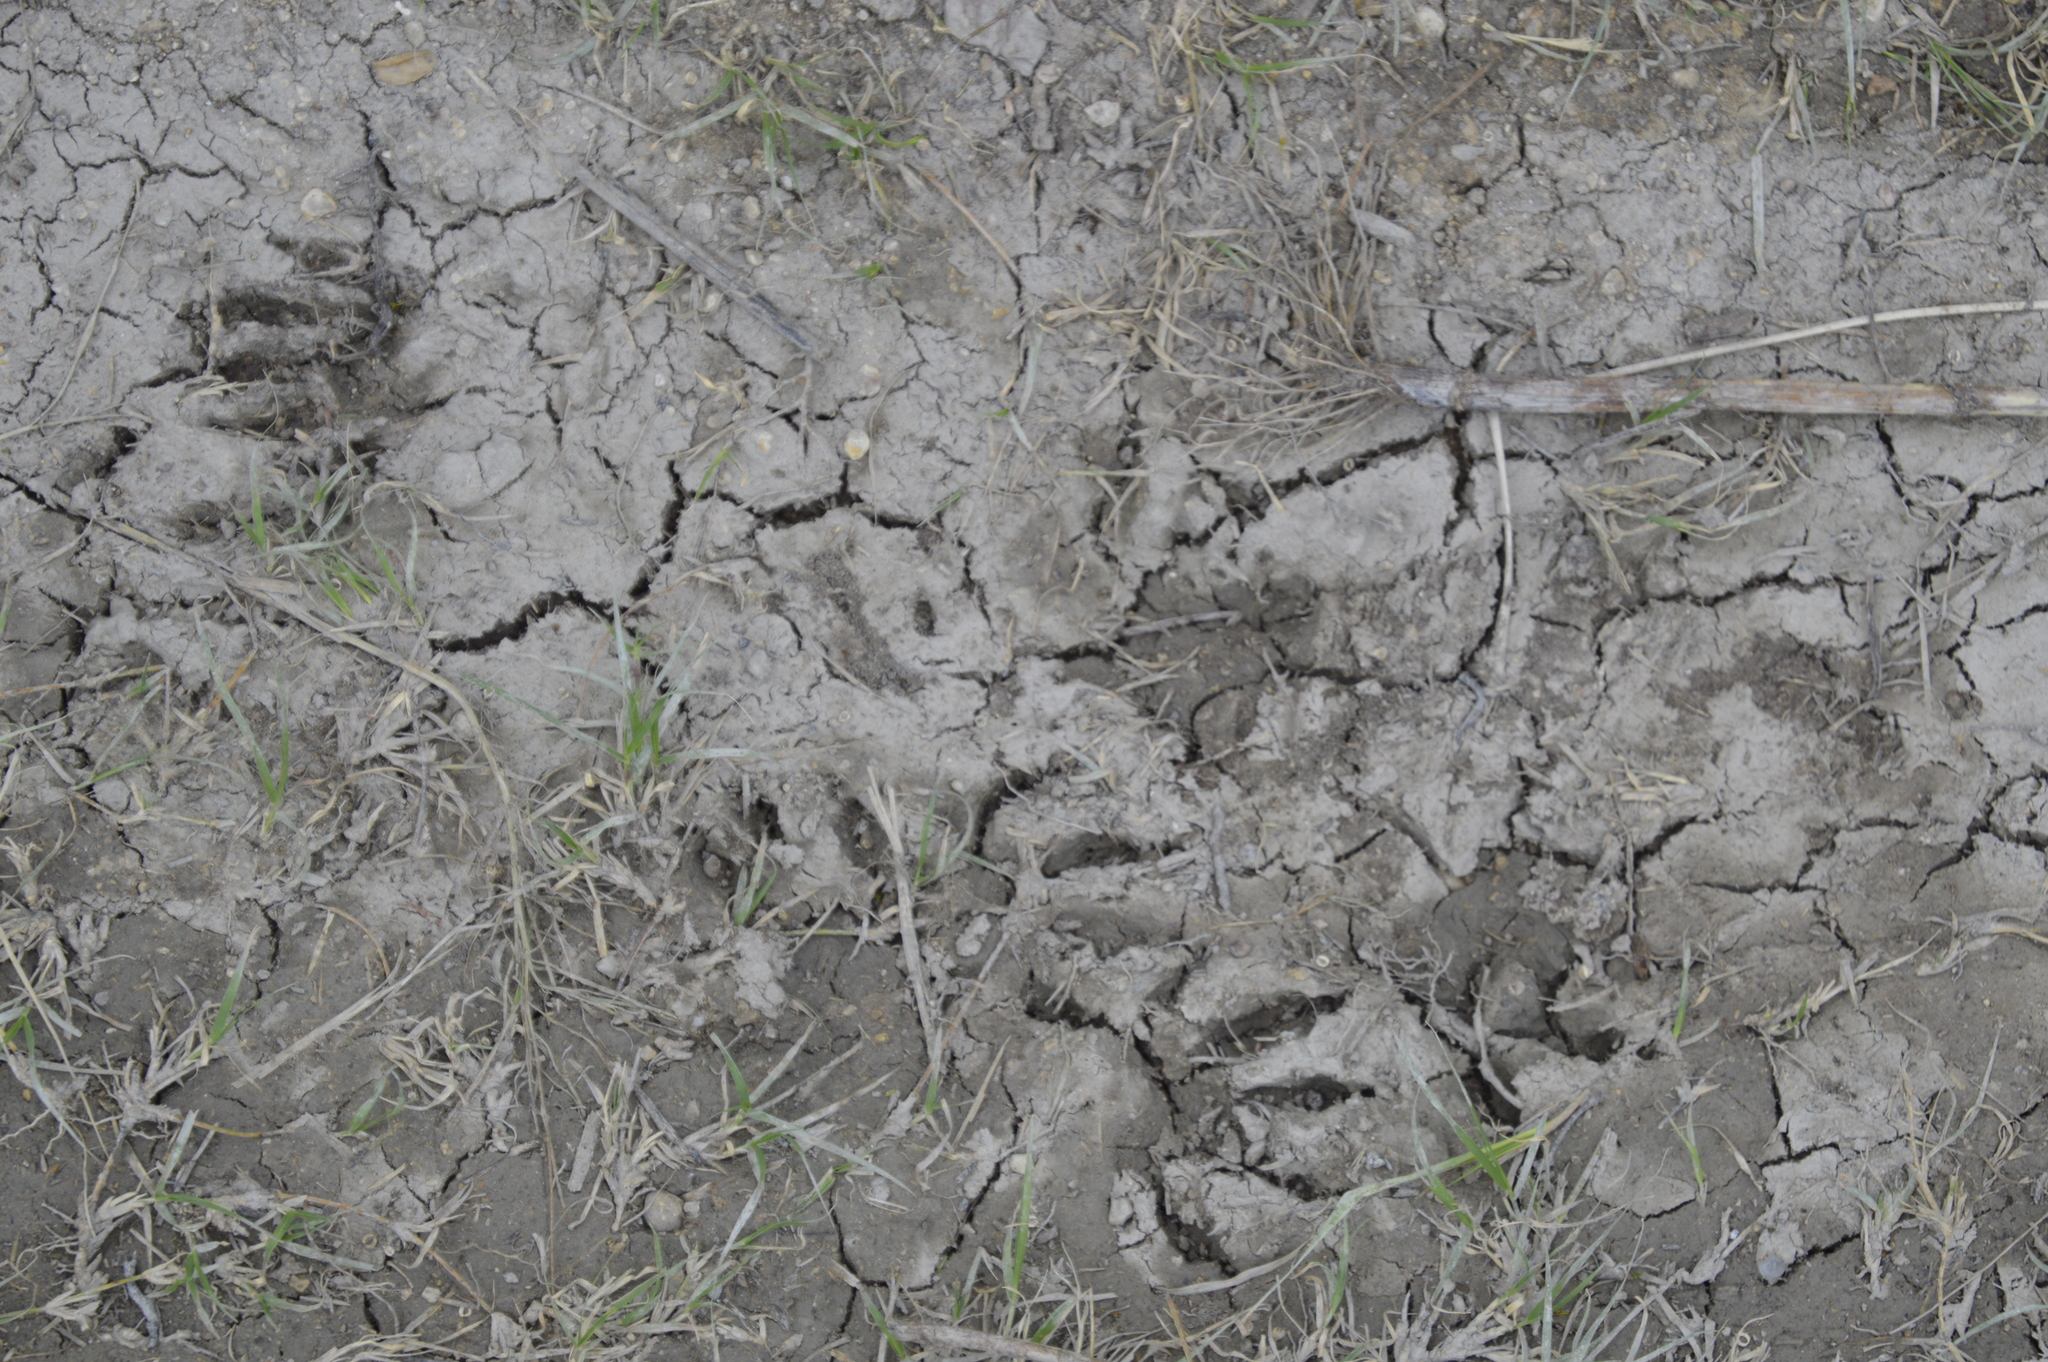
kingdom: Animalia
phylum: Chordata
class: Mammalia
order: Carnivora
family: Procyonidae
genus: Procyon
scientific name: Procyon lotor
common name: Raccoon
